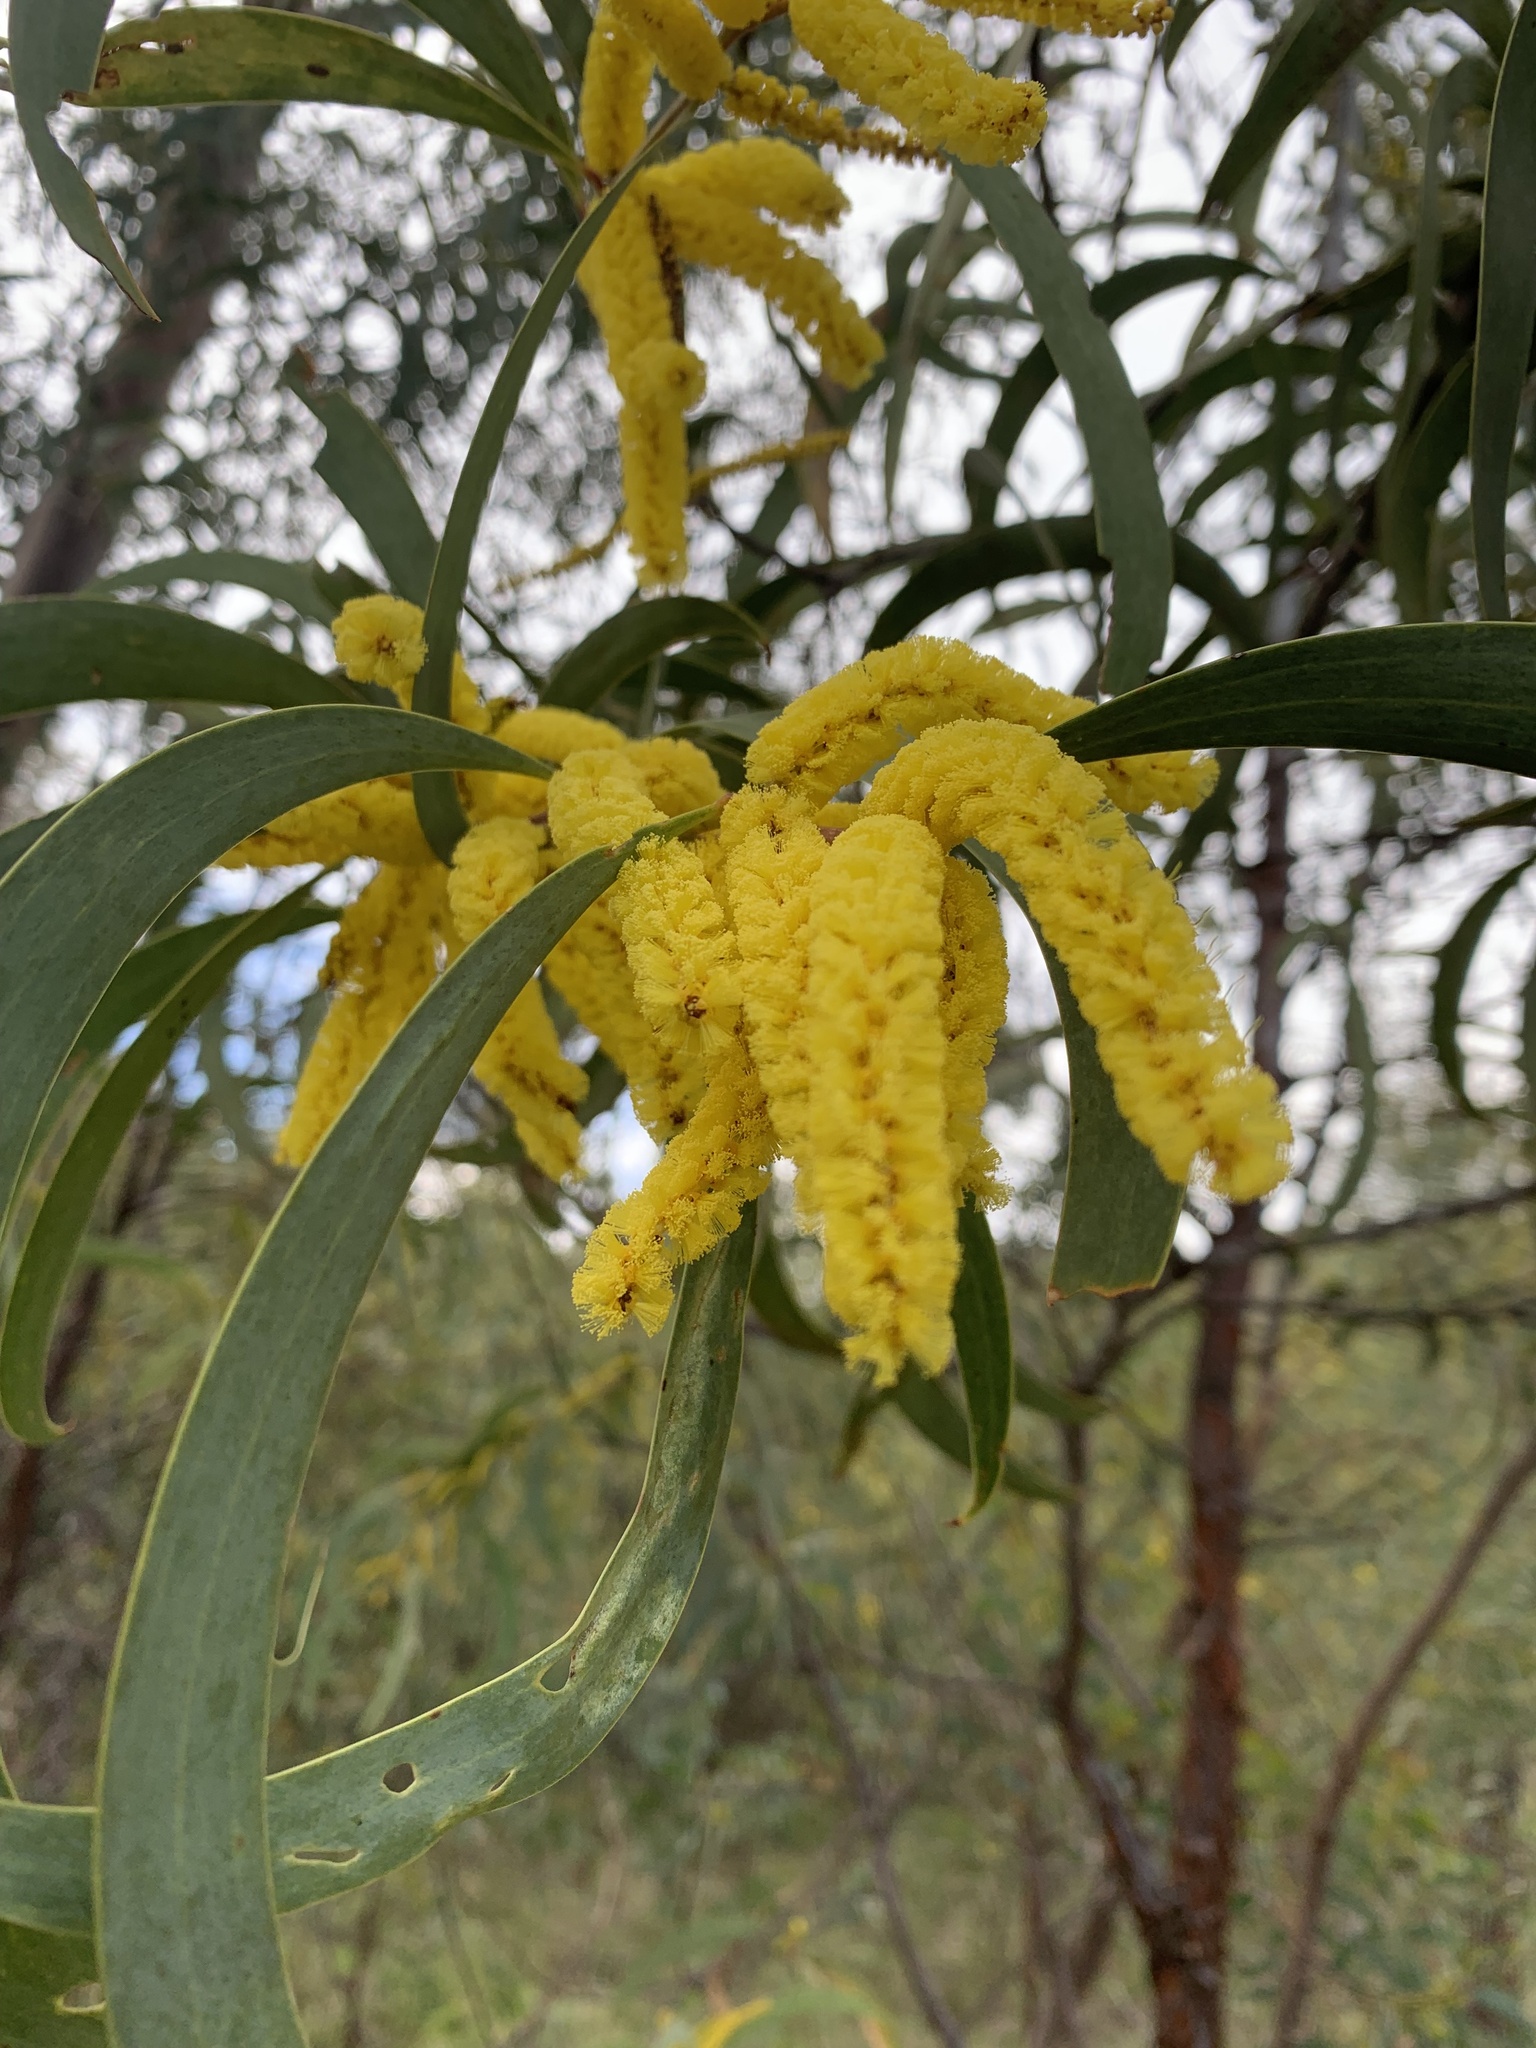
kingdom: Plantae
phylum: Tracheophyta
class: Magnoliopsida
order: Fabales
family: Fabaceae
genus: Acacia
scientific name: Acacia cheelii
